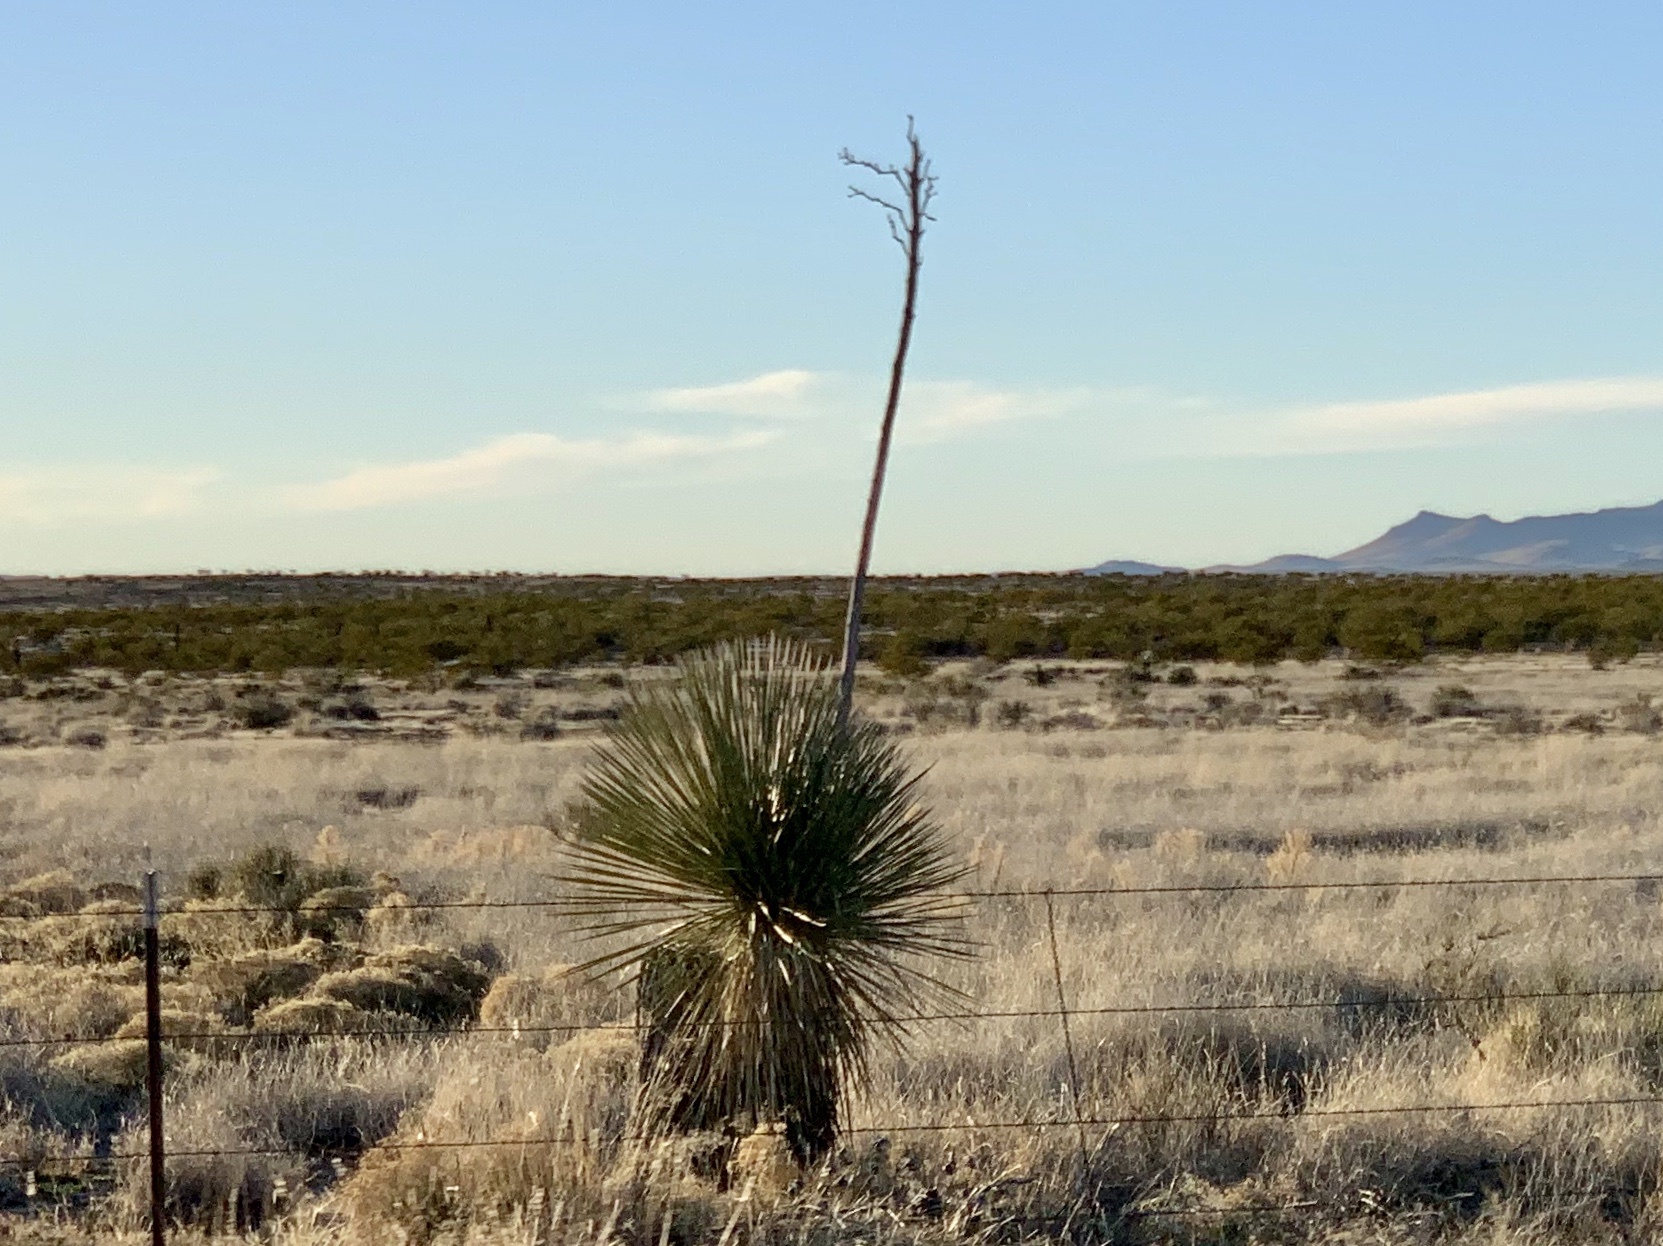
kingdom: Plantae
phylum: Tracheophyta
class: Liliopsida
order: Asparagales
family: Asparagaceae
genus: Yucca
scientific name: Yucca elata
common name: Palmella
